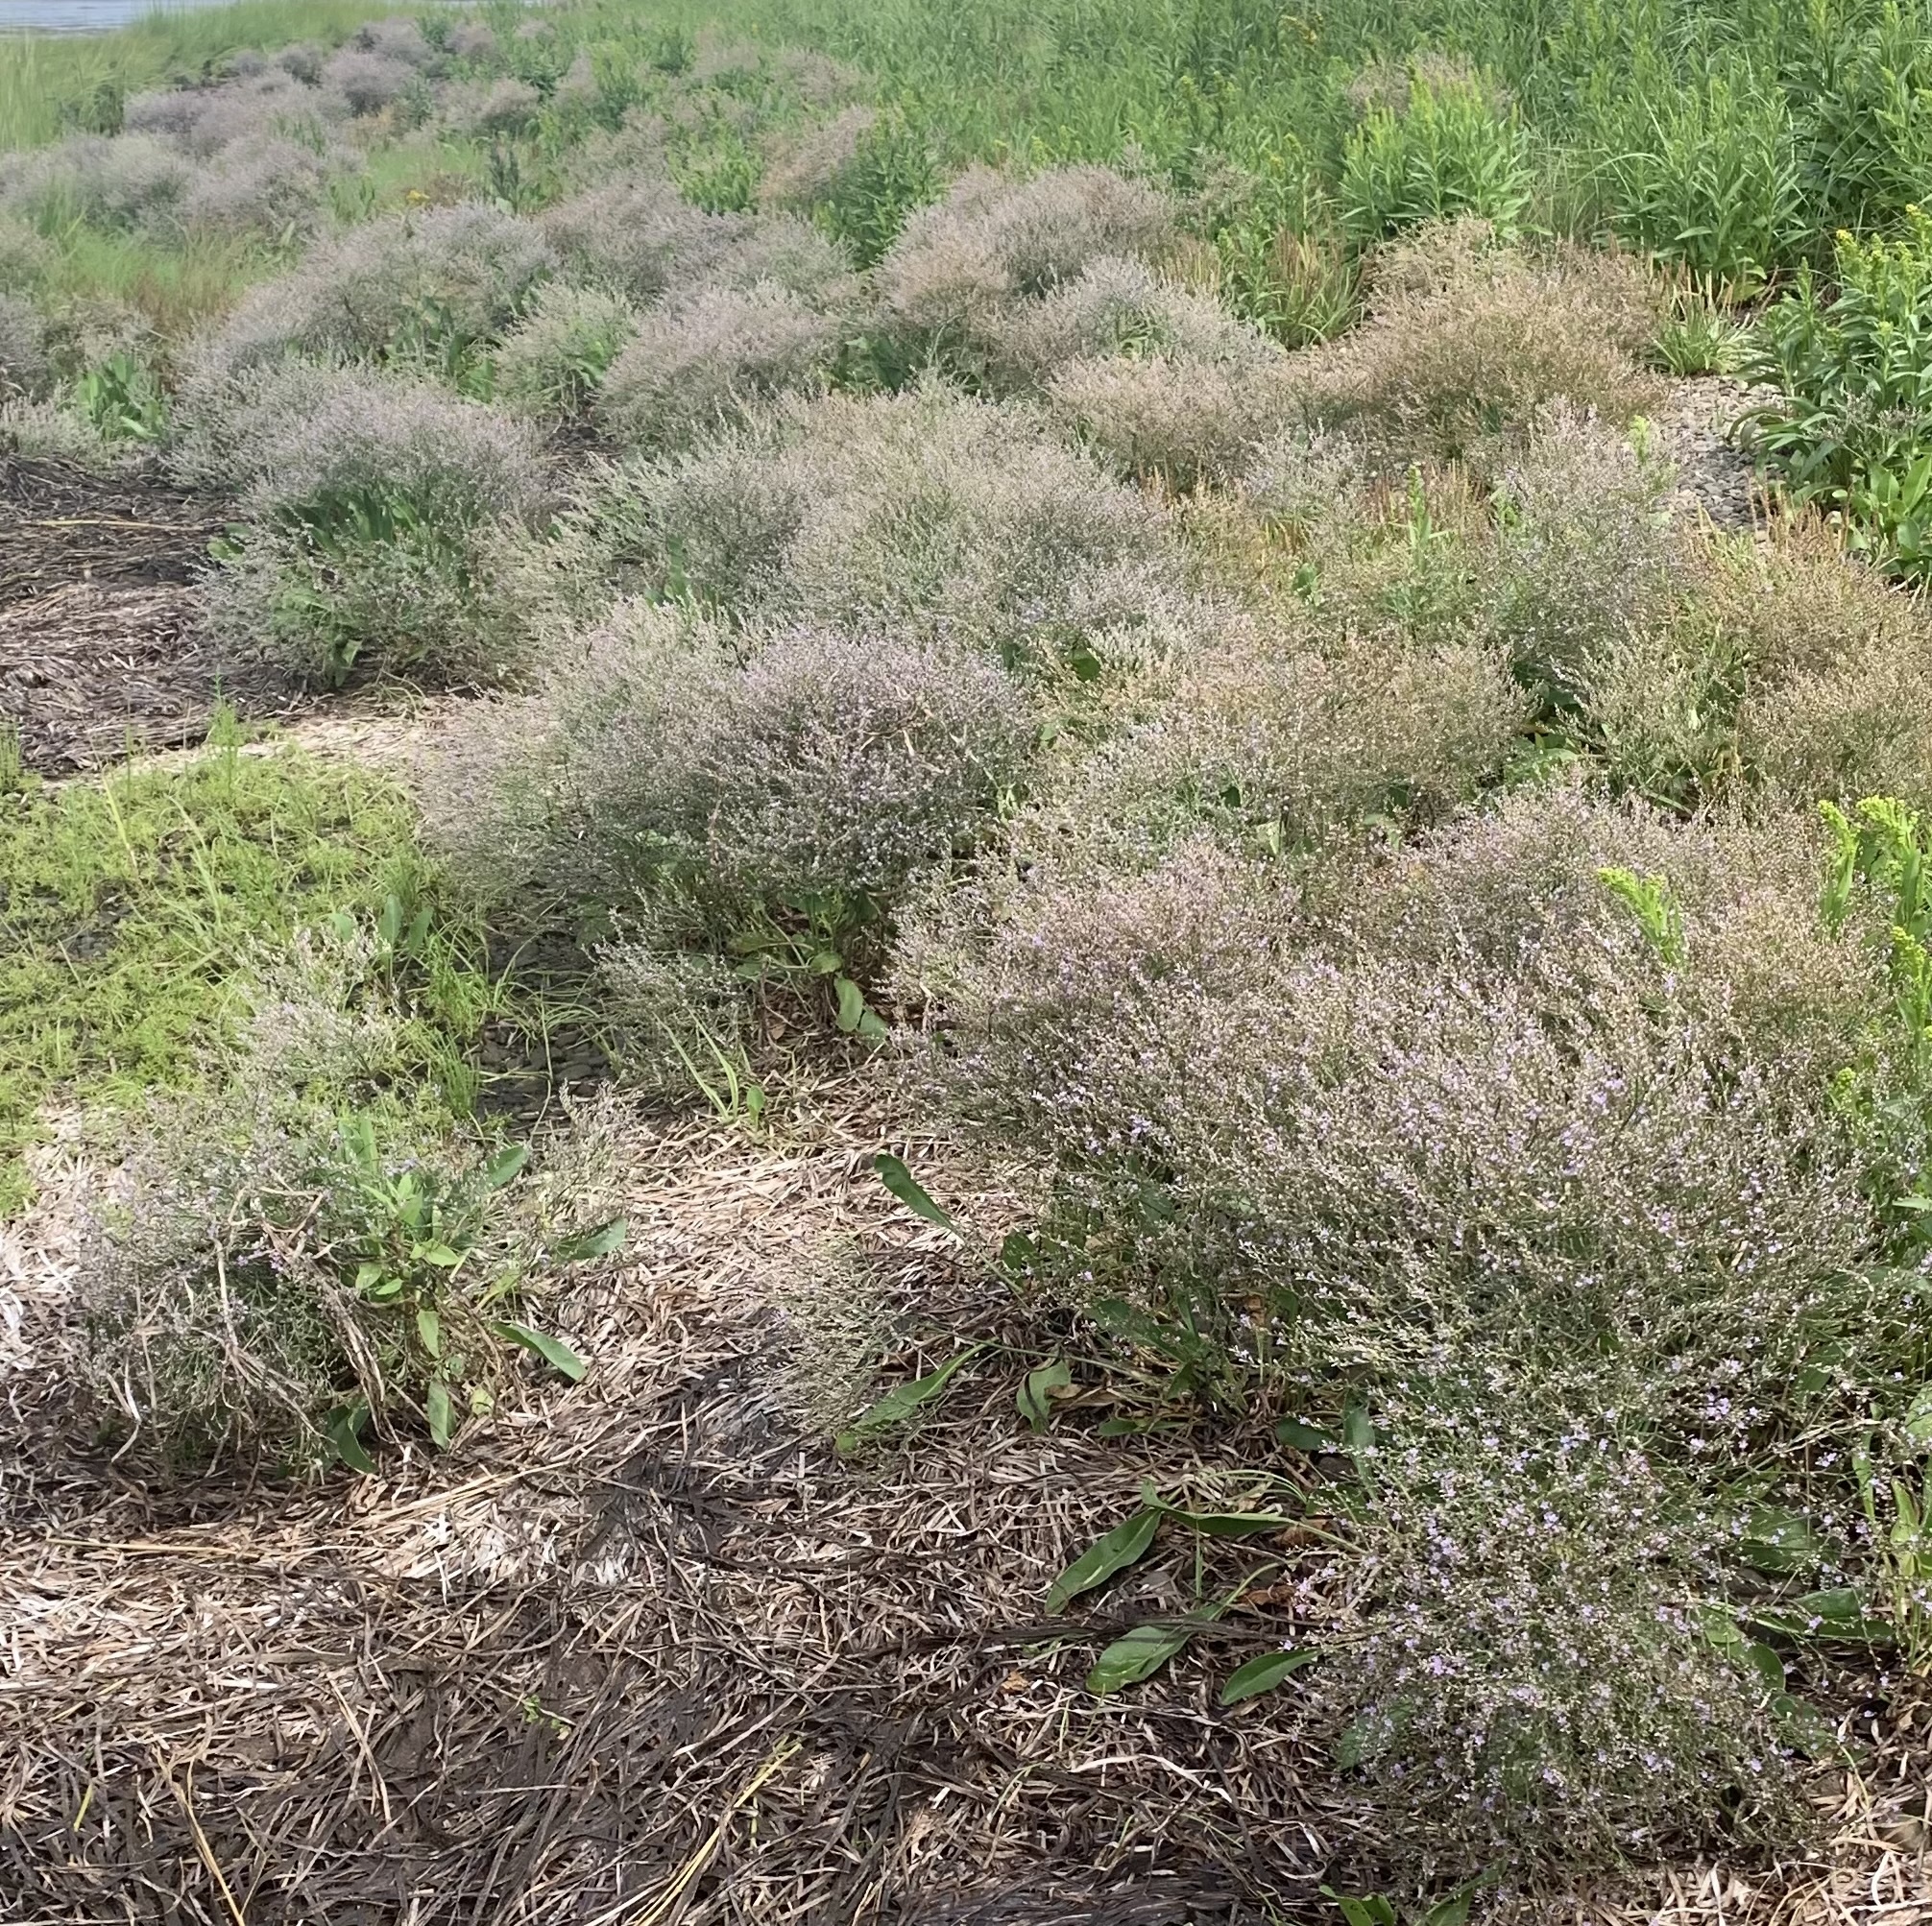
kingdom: Plantae
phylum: Tracheophyta
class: Magnoliopsida
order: Caryophyllales
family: Plumbaginaceae
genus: Limonium
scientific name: Limonium carolinianum
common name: Carolina sea lavender
